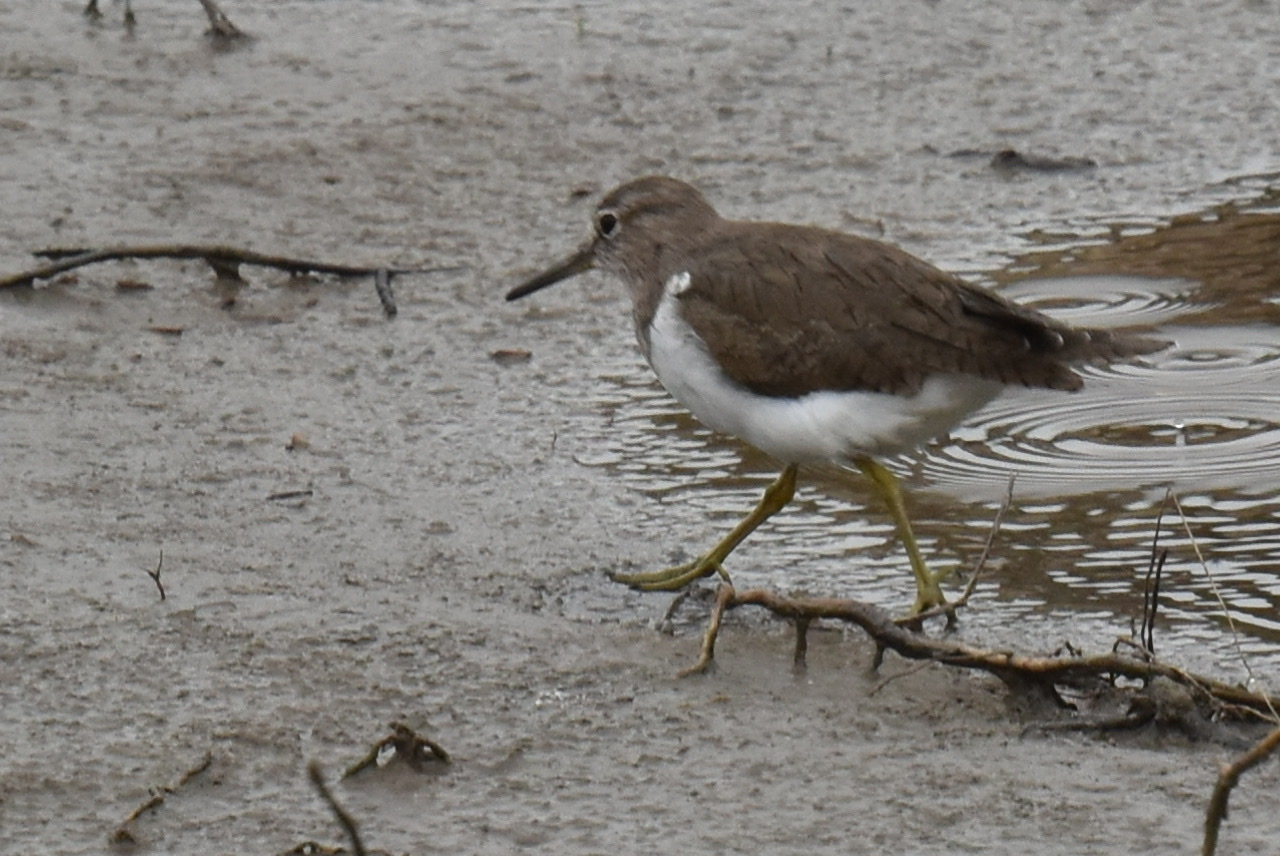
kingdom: Animalia
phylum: Chordata
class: Aves
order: Charadriiformes
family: Scolopacidae
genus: Actitis
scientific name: Actitis hypoleucos
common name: Common sandpiper
